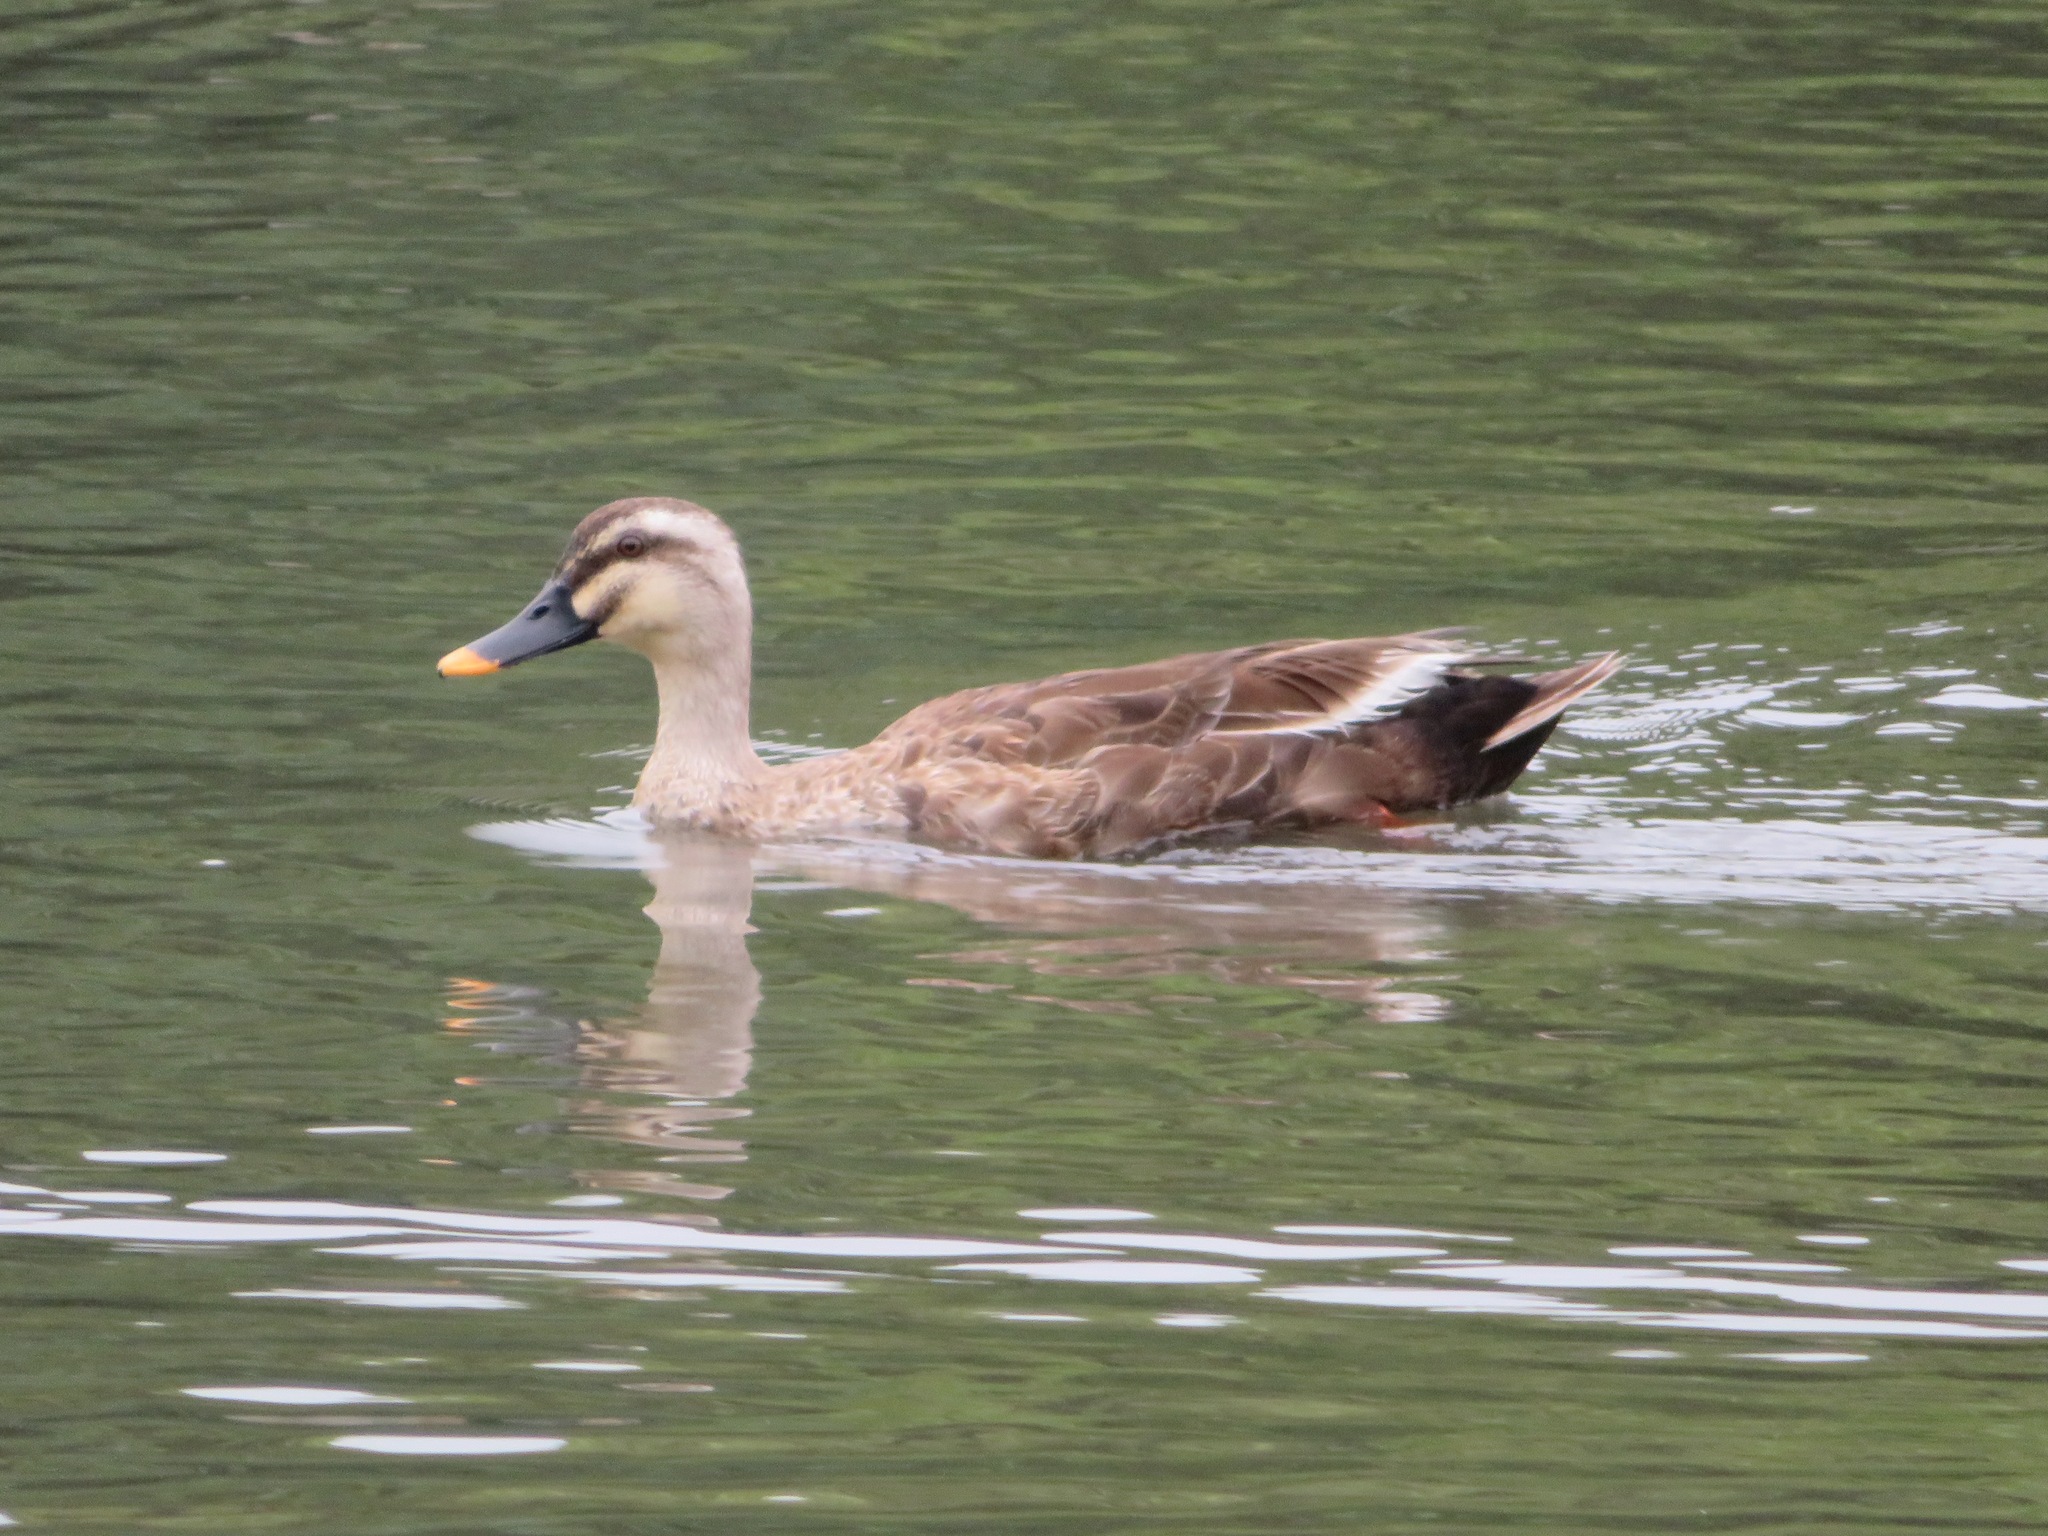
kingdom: Animalia
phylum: Chordata
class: Aves
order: Anseriformes
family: Anatidae
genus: Anas
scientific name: Anas zonorhyncha
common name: Eastern spot-billed duck
